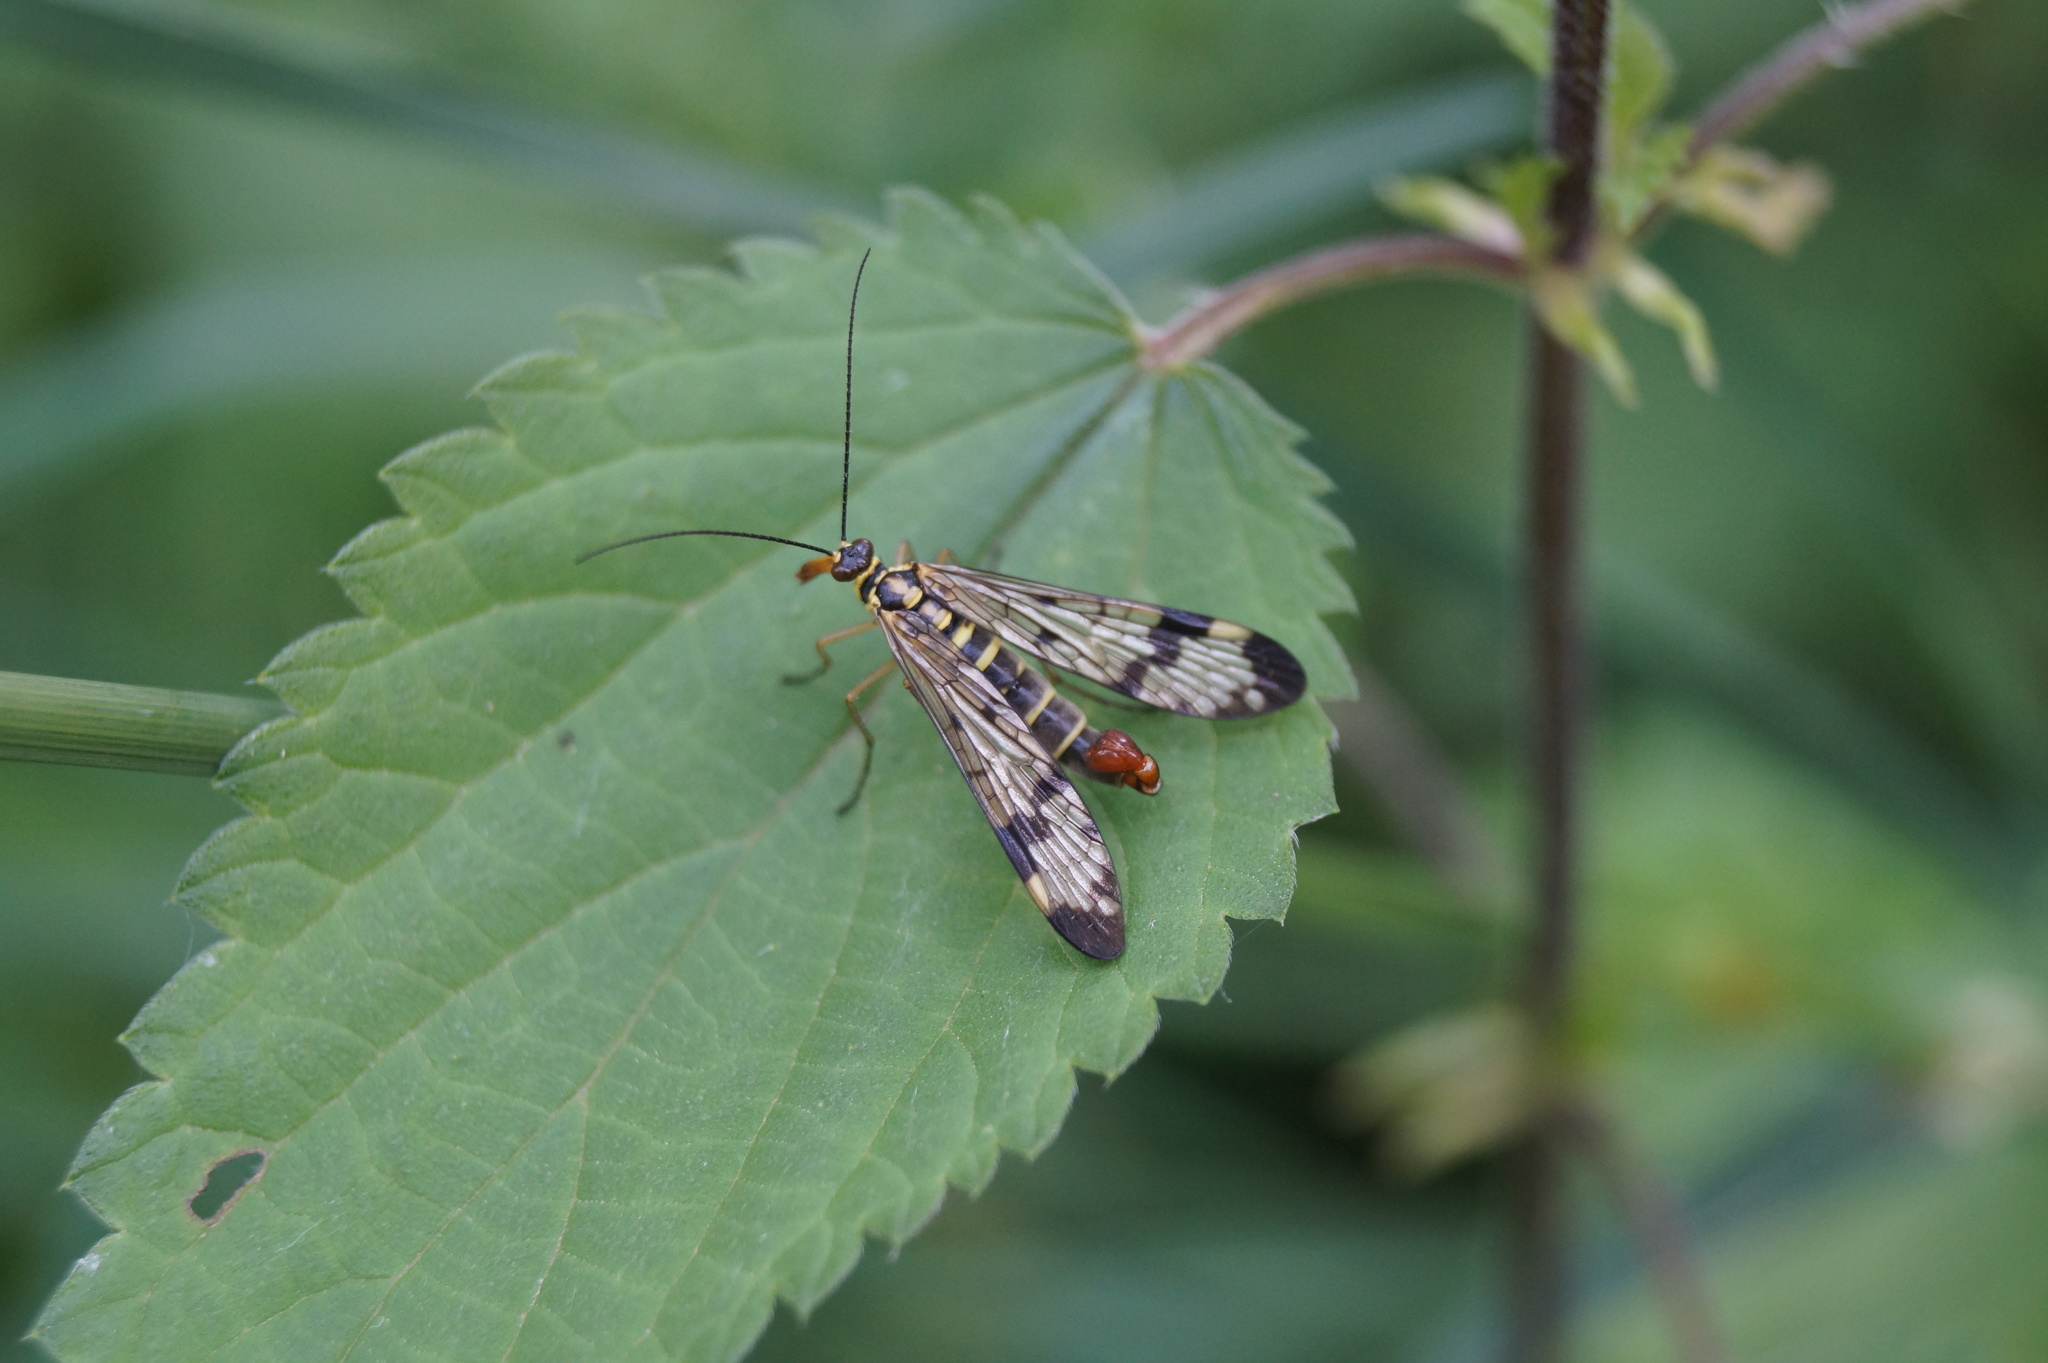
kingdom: Animalia
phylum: Arthropoda
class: Insecta
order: Mecoptera
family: Panorpidae
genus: Panorpa
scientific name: Panorpa communis
